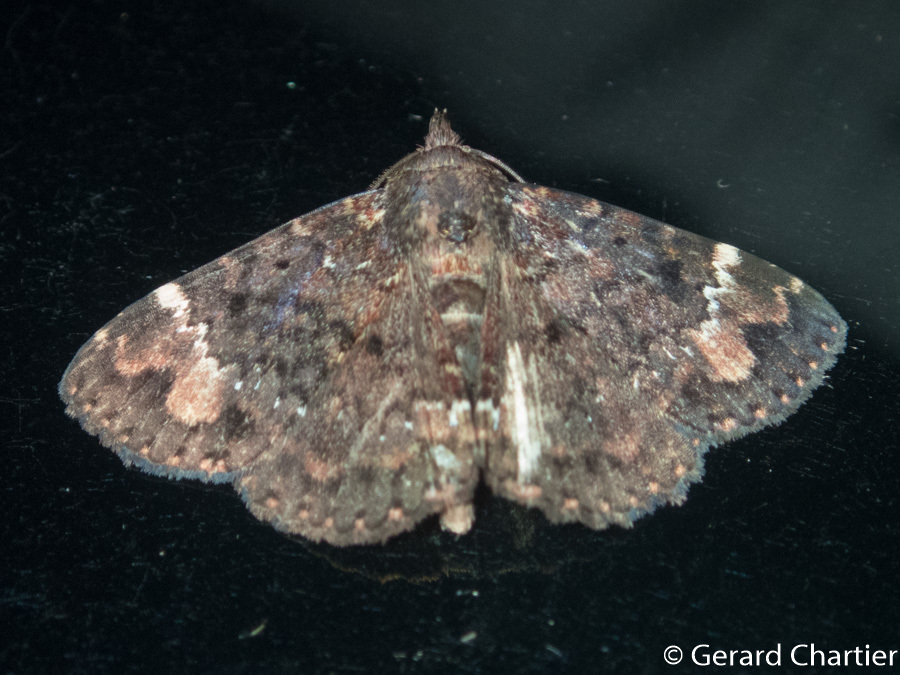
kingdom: Animalia
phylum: Arthropoda
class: Insecta
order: Lepidoptera
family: Erebidae
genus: Diomea
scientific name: Diomea tricuspida
